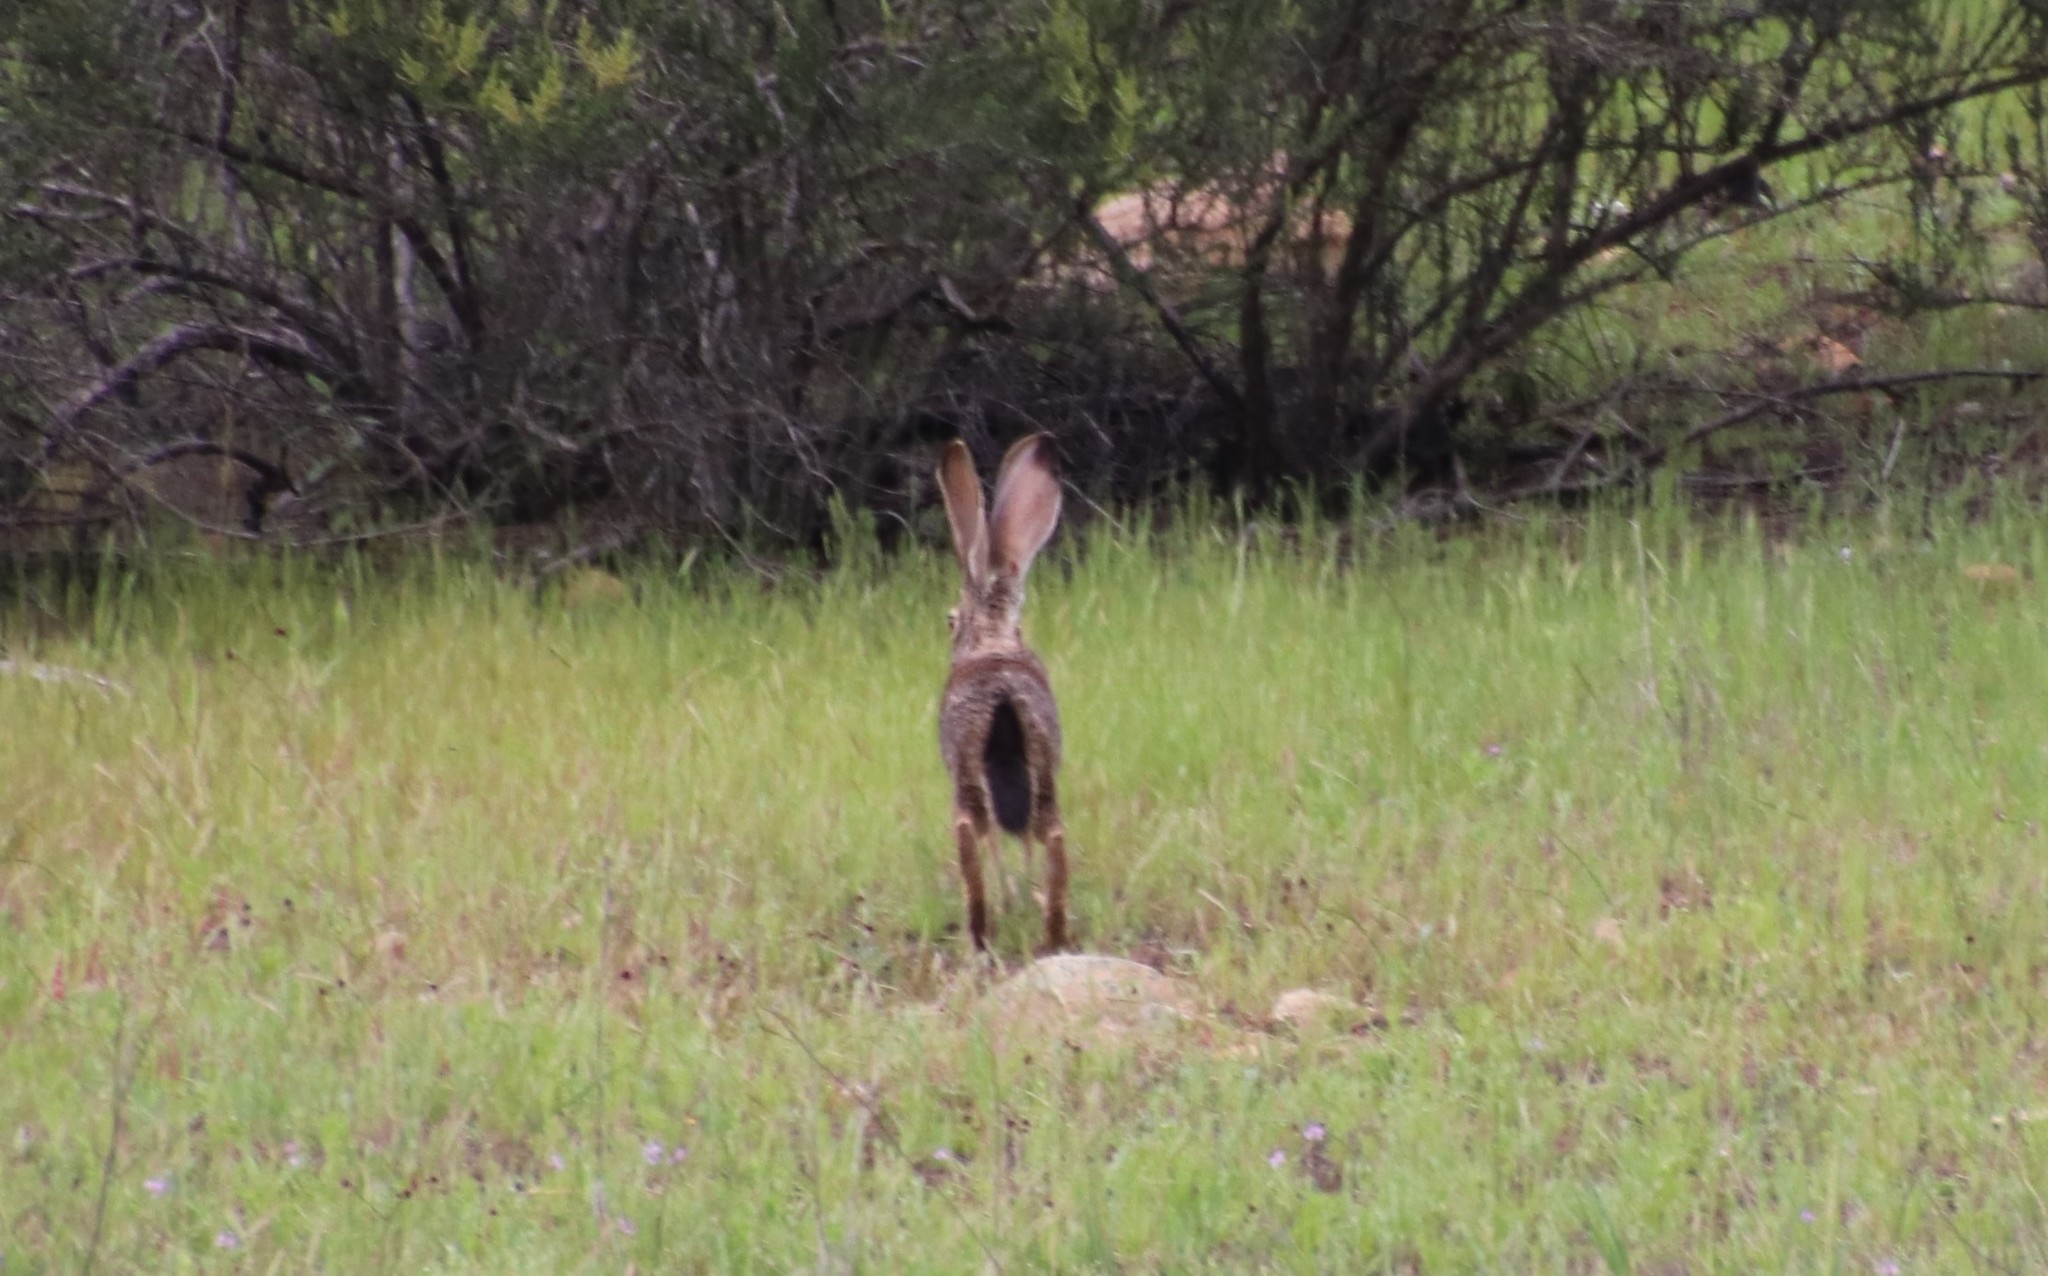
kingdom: Animalia
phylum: Chordata
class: Mammalia
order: Lagomorpha
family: Leporidae
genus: Lepus
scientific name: Lepus californicus
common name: Black-tailed jackrabbit
